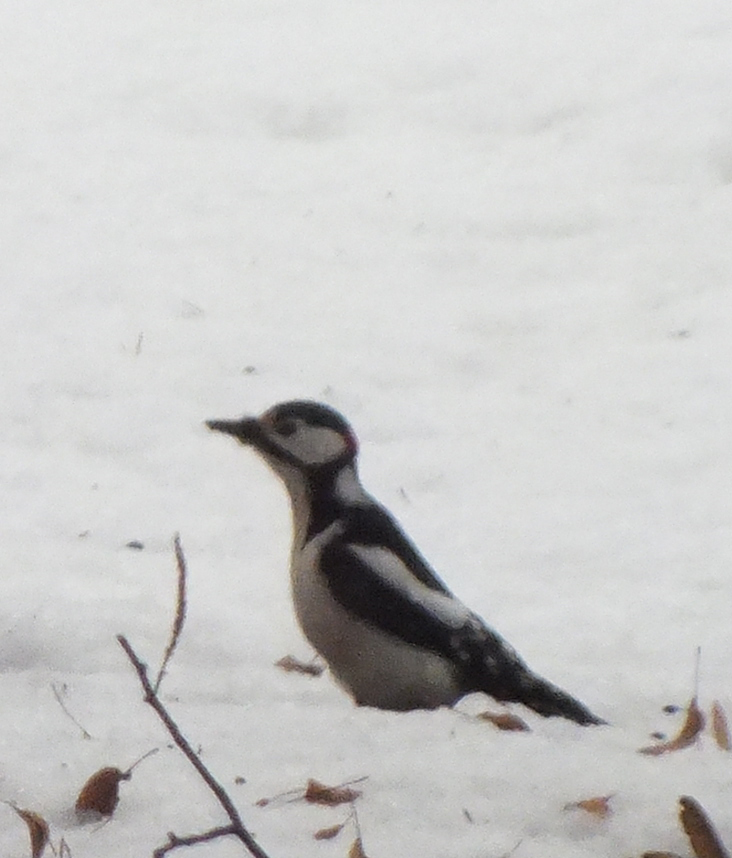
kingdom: Animalia
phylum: Chordata
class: Aves
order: Piciformes
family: Picidae
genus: Dendrocopos
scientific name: Dendrocopos major
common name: Great spotted woodpecker
